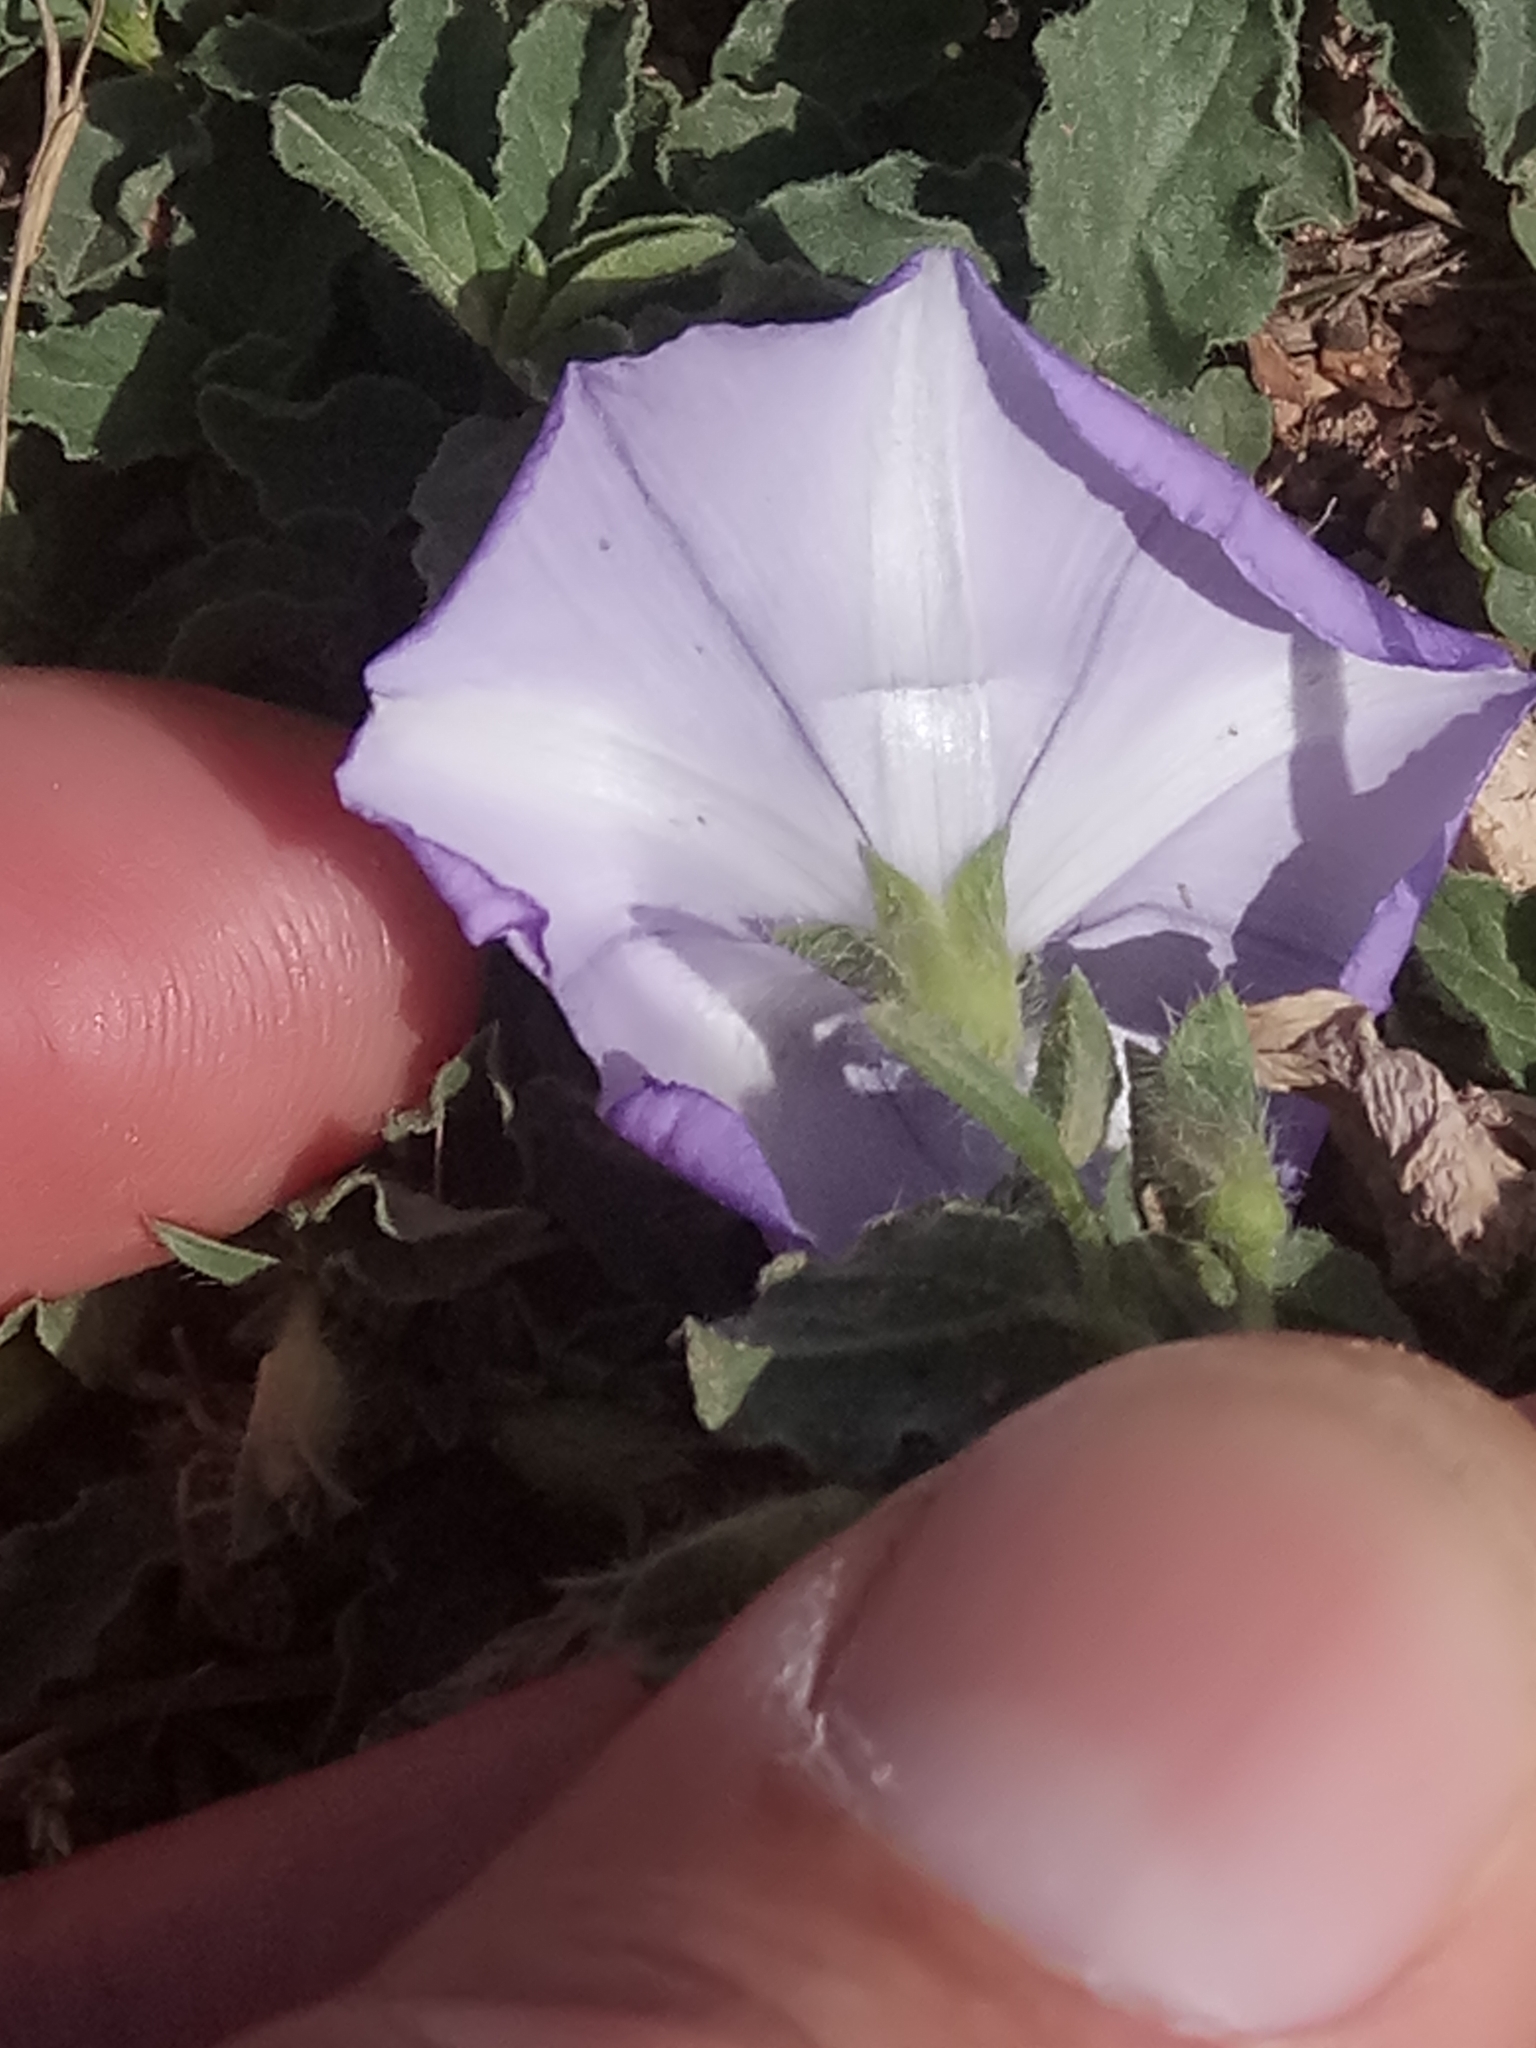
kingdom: Plantae
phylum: Tracheophyta
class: Magnoliopsida
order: Solanales
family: Convolvulaceae
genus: Convolvulus
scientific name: Convolvulus sabatius
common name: Ground blue-convolvulus
